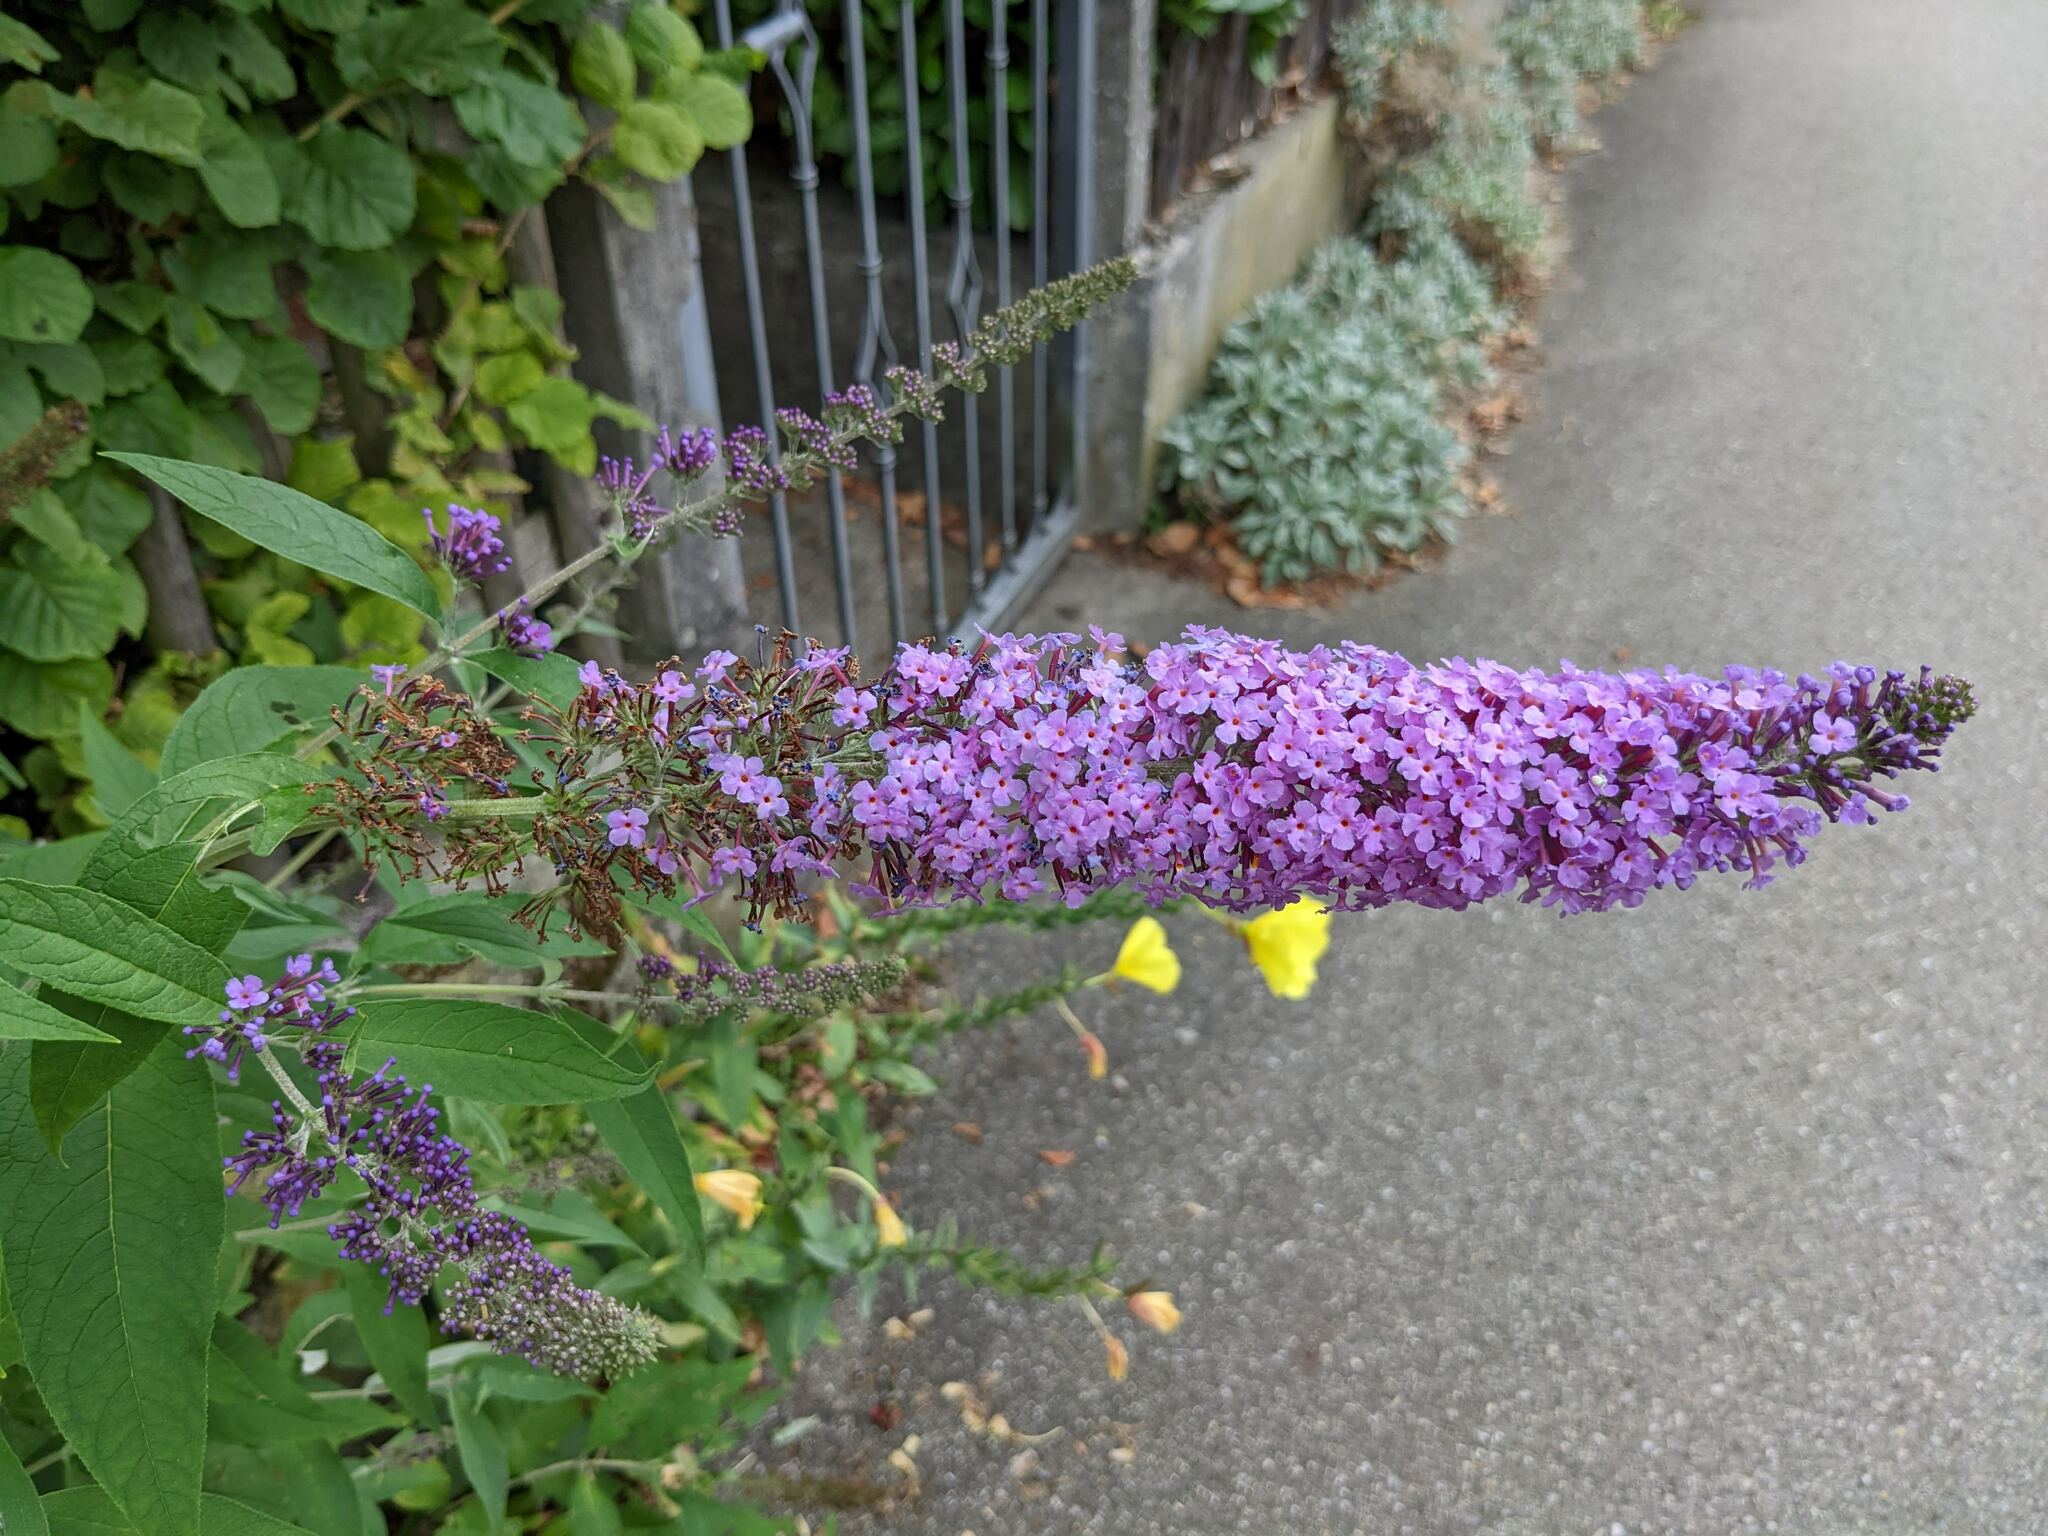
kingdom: Plantae
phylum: Tracheophyta
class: Magnoliopsida
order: Lamiales
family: Scrophulariaceae
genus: Buddleja
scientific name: Buddleja davidii
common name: Butterfly-bush
